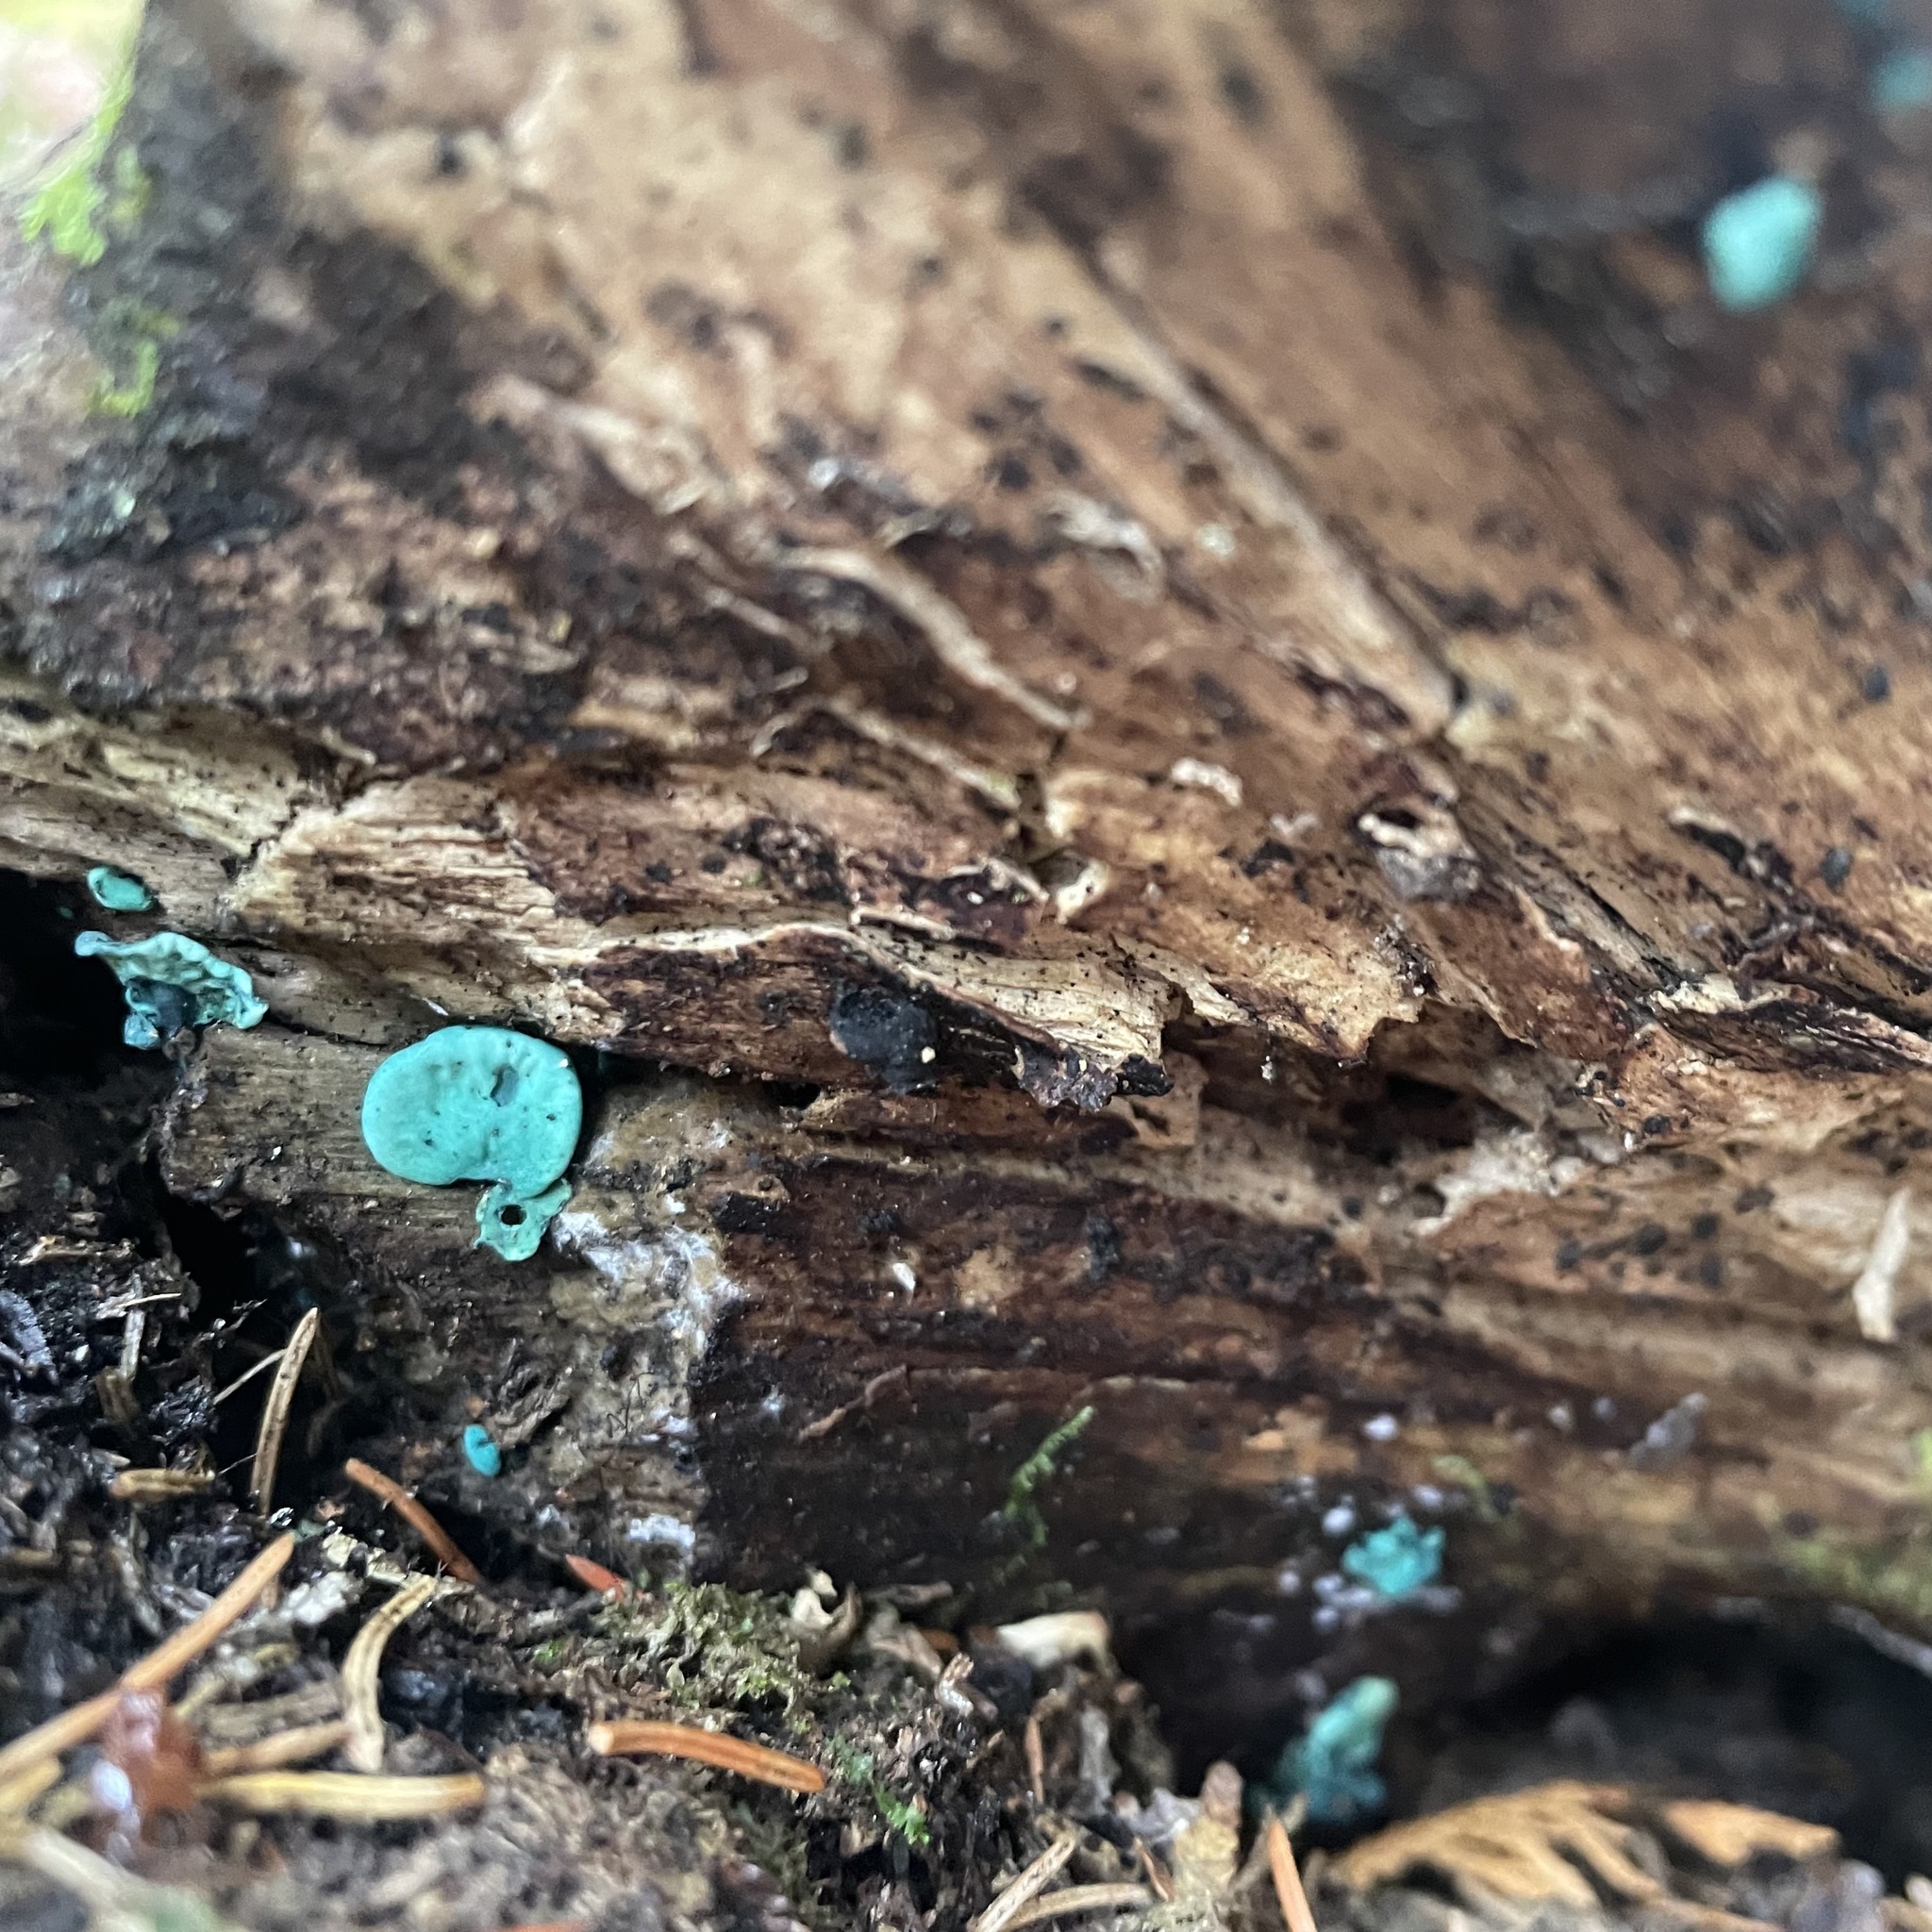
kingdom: Fungi
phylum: Ascomycota
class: Leotiomycetes
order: Helotiales
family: Chlorociboriaceae
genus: Chlorociboria
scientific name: Chlorociboria aeruginascens
